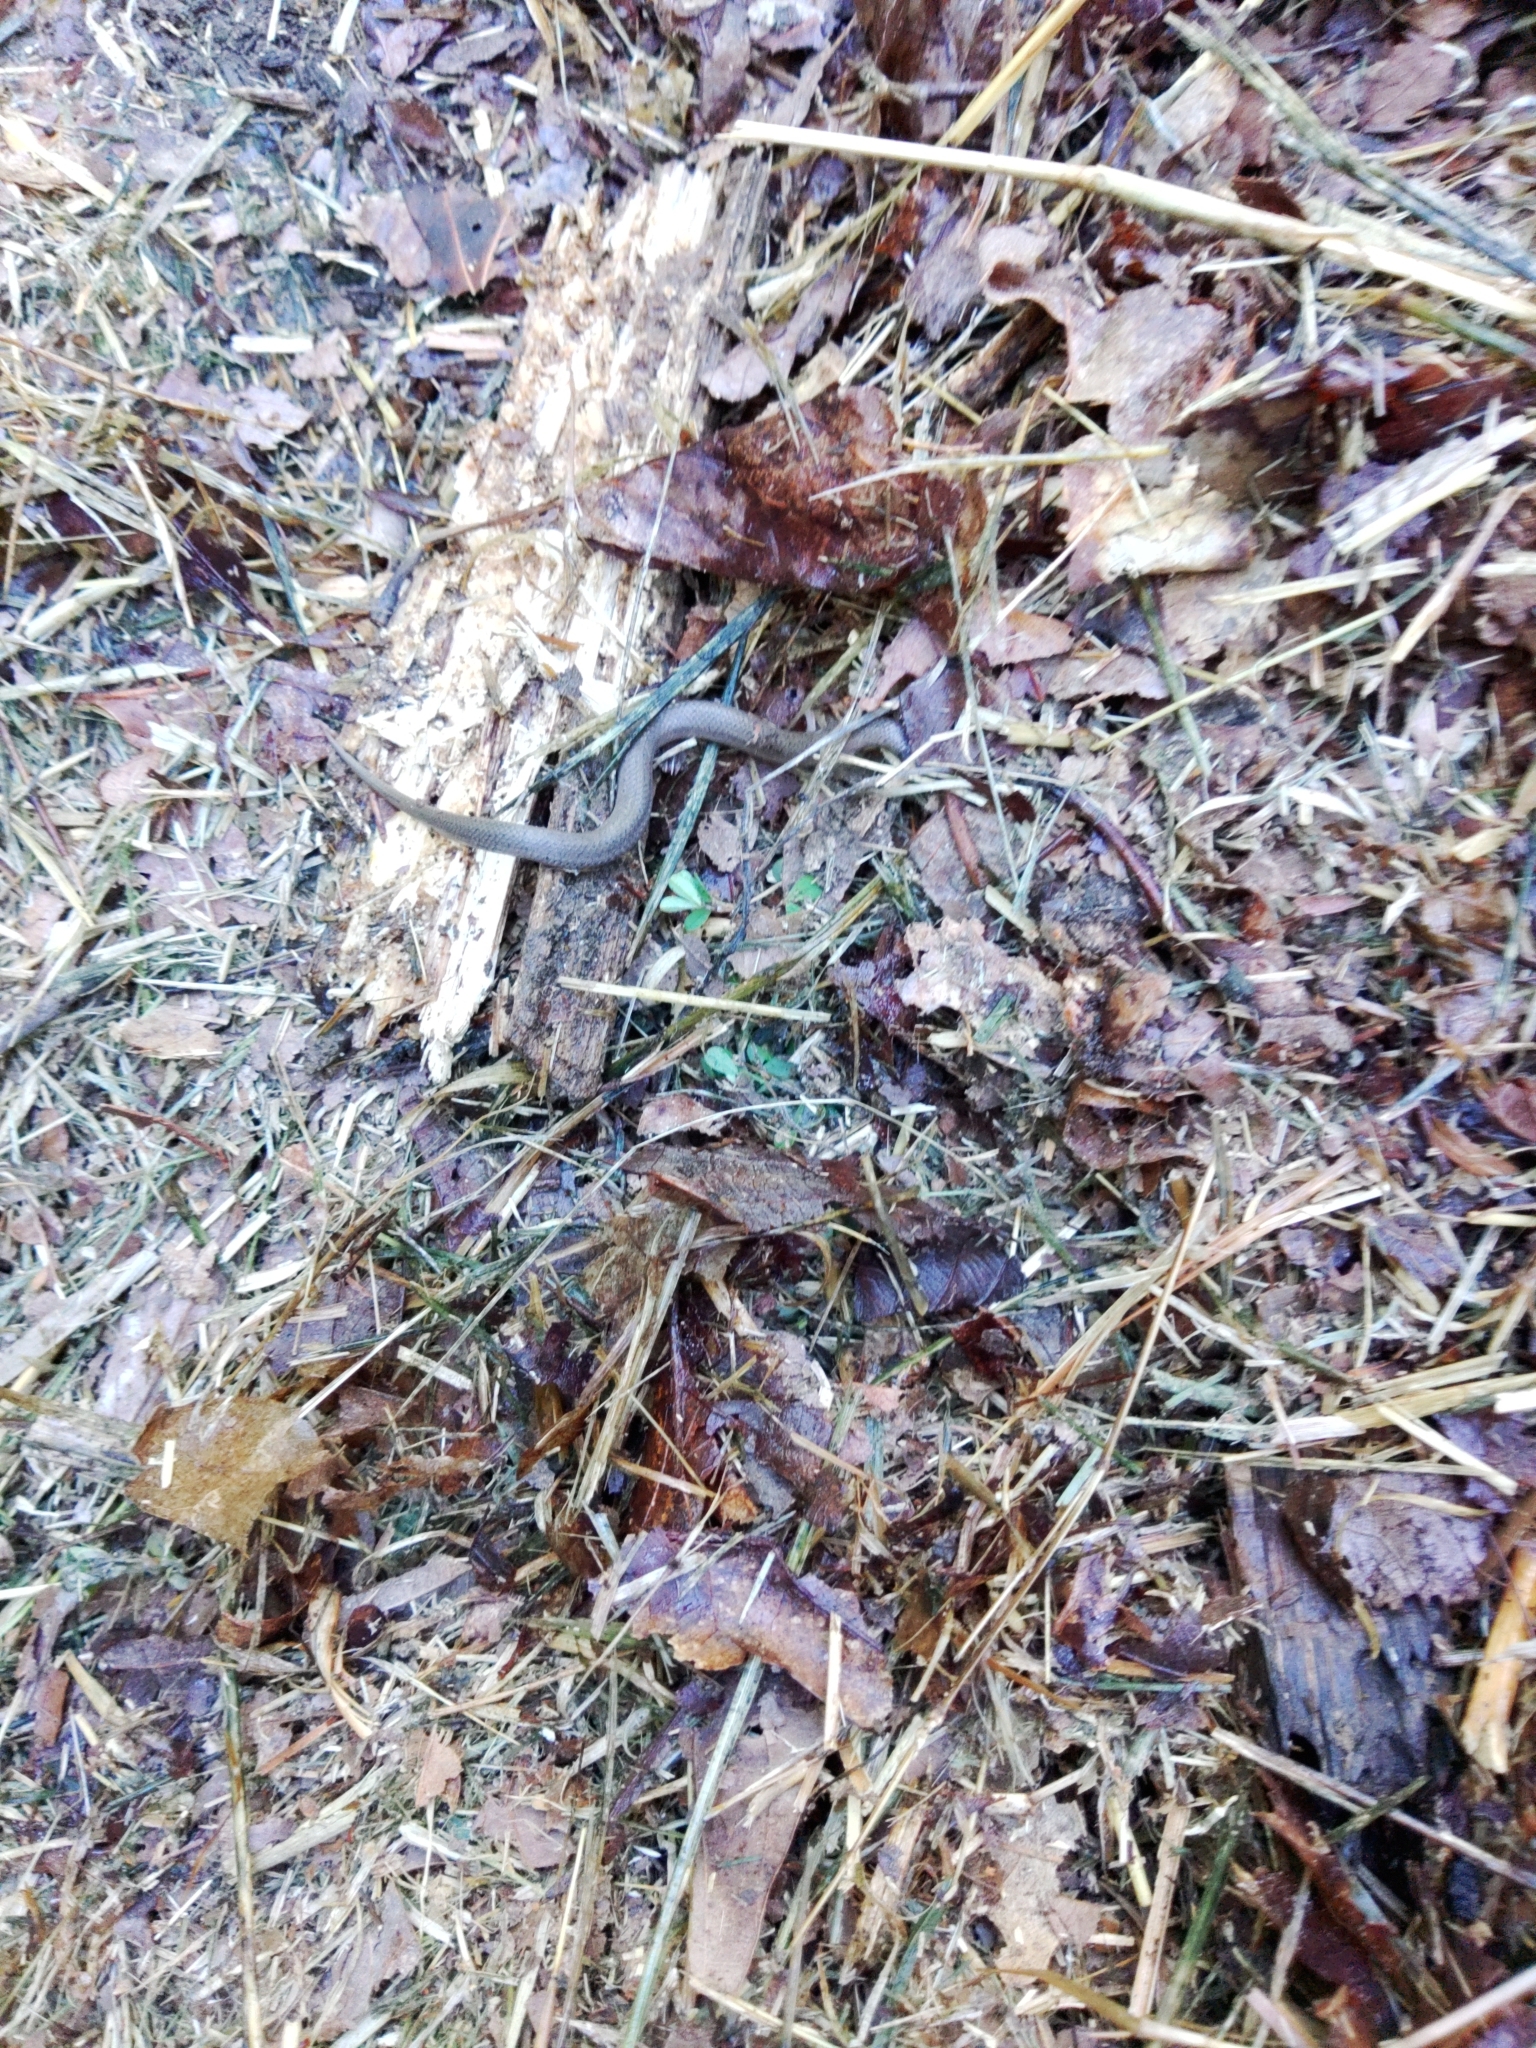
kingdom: Animalia
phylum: Chordata
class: Squamata
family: Colubridae
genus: Virginia
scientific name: Virginia valeriae
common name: Smooth earth snake
